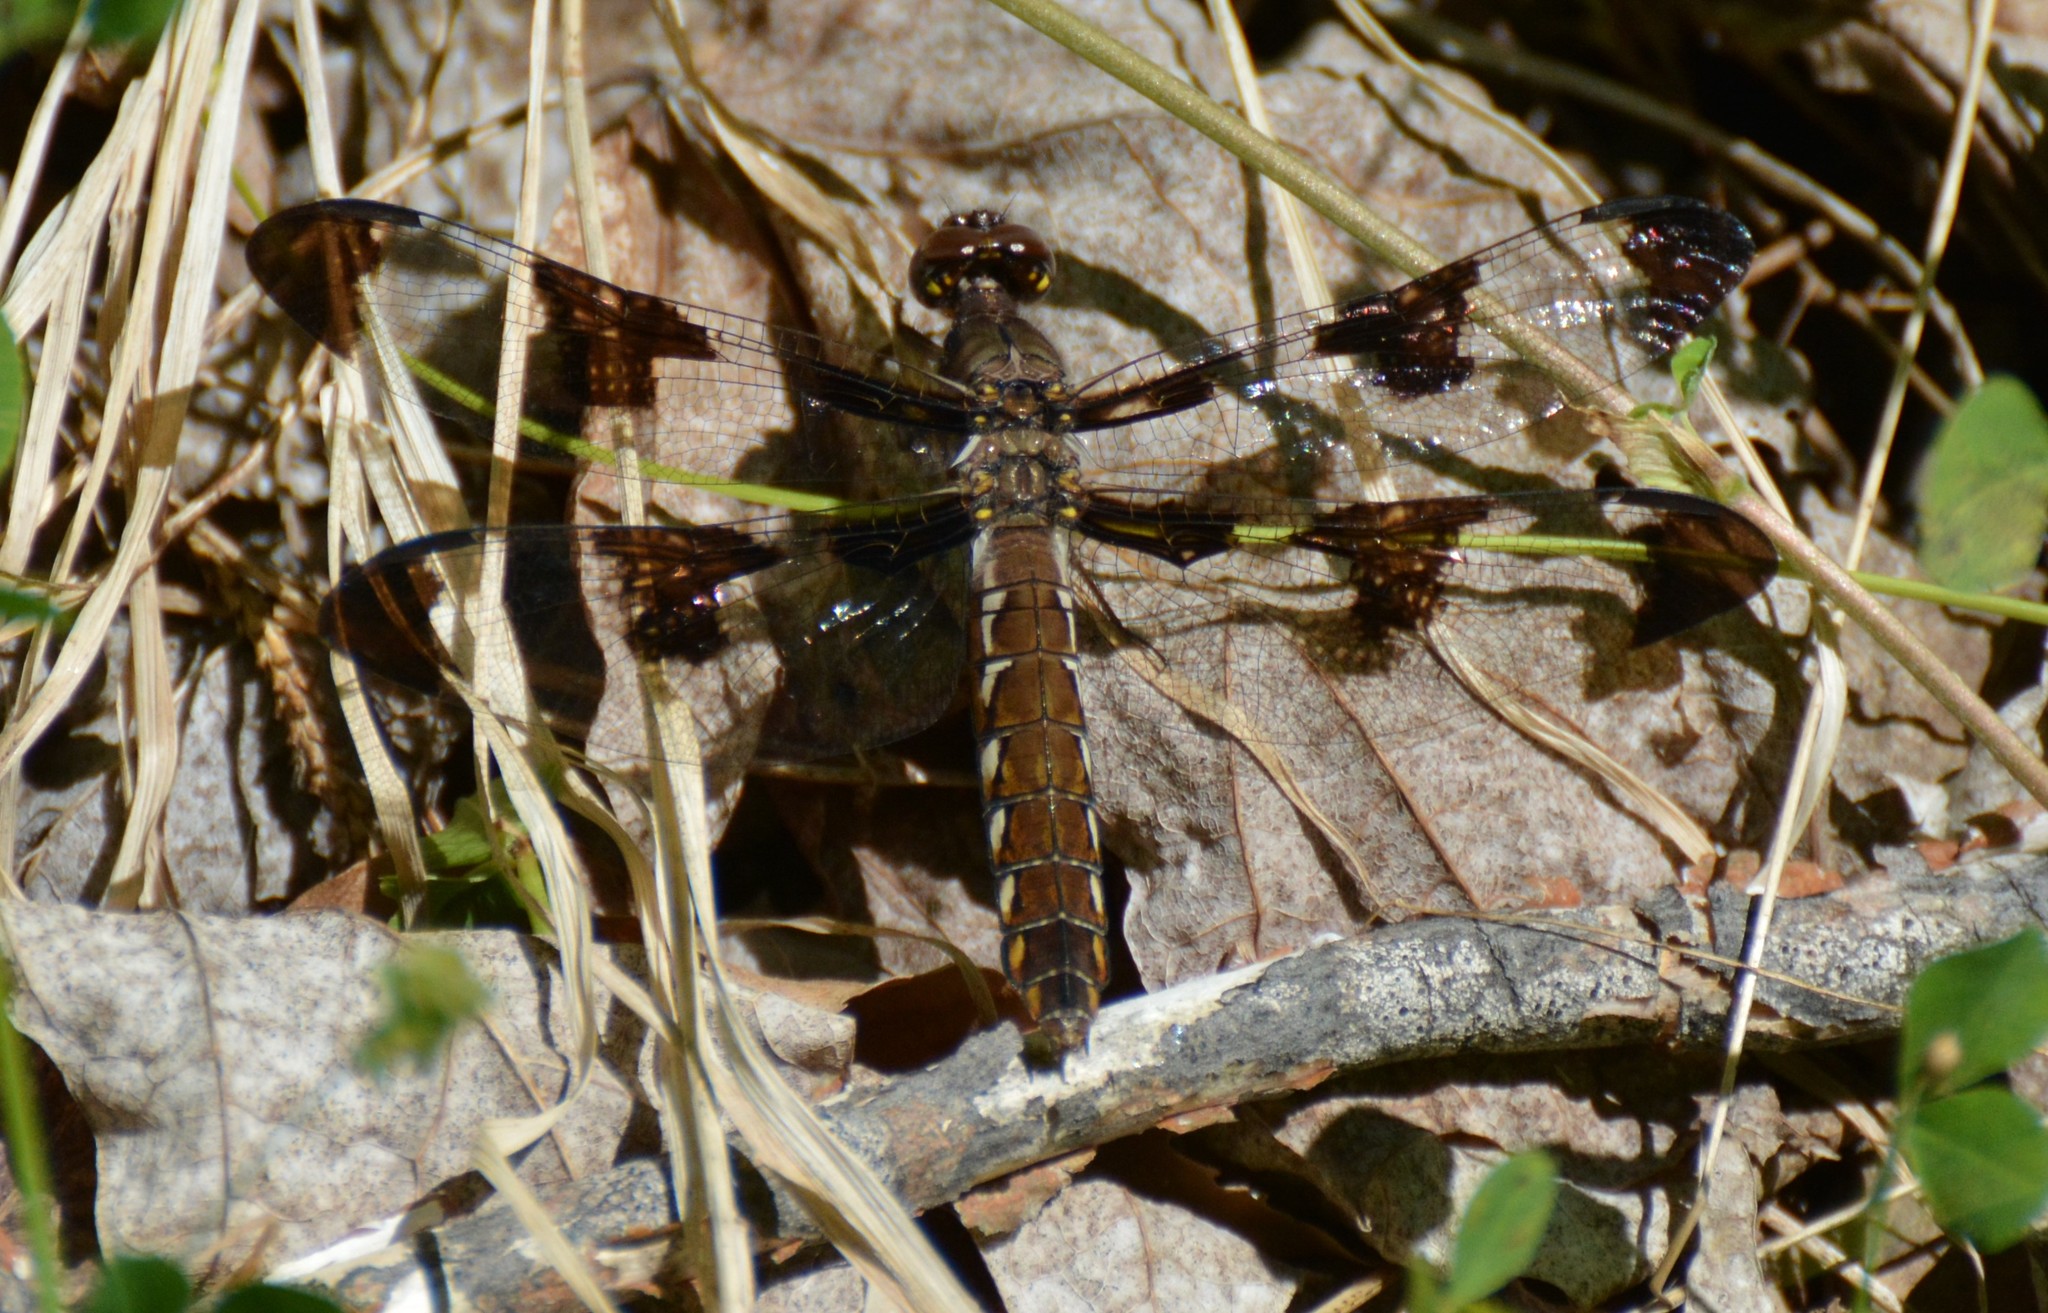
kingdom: Animalia
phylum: Arthropoda
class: Insecta
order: Odonata
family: Libellulidae
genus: Plathemis
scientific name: Plathemis lydia
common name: Common whitetail
